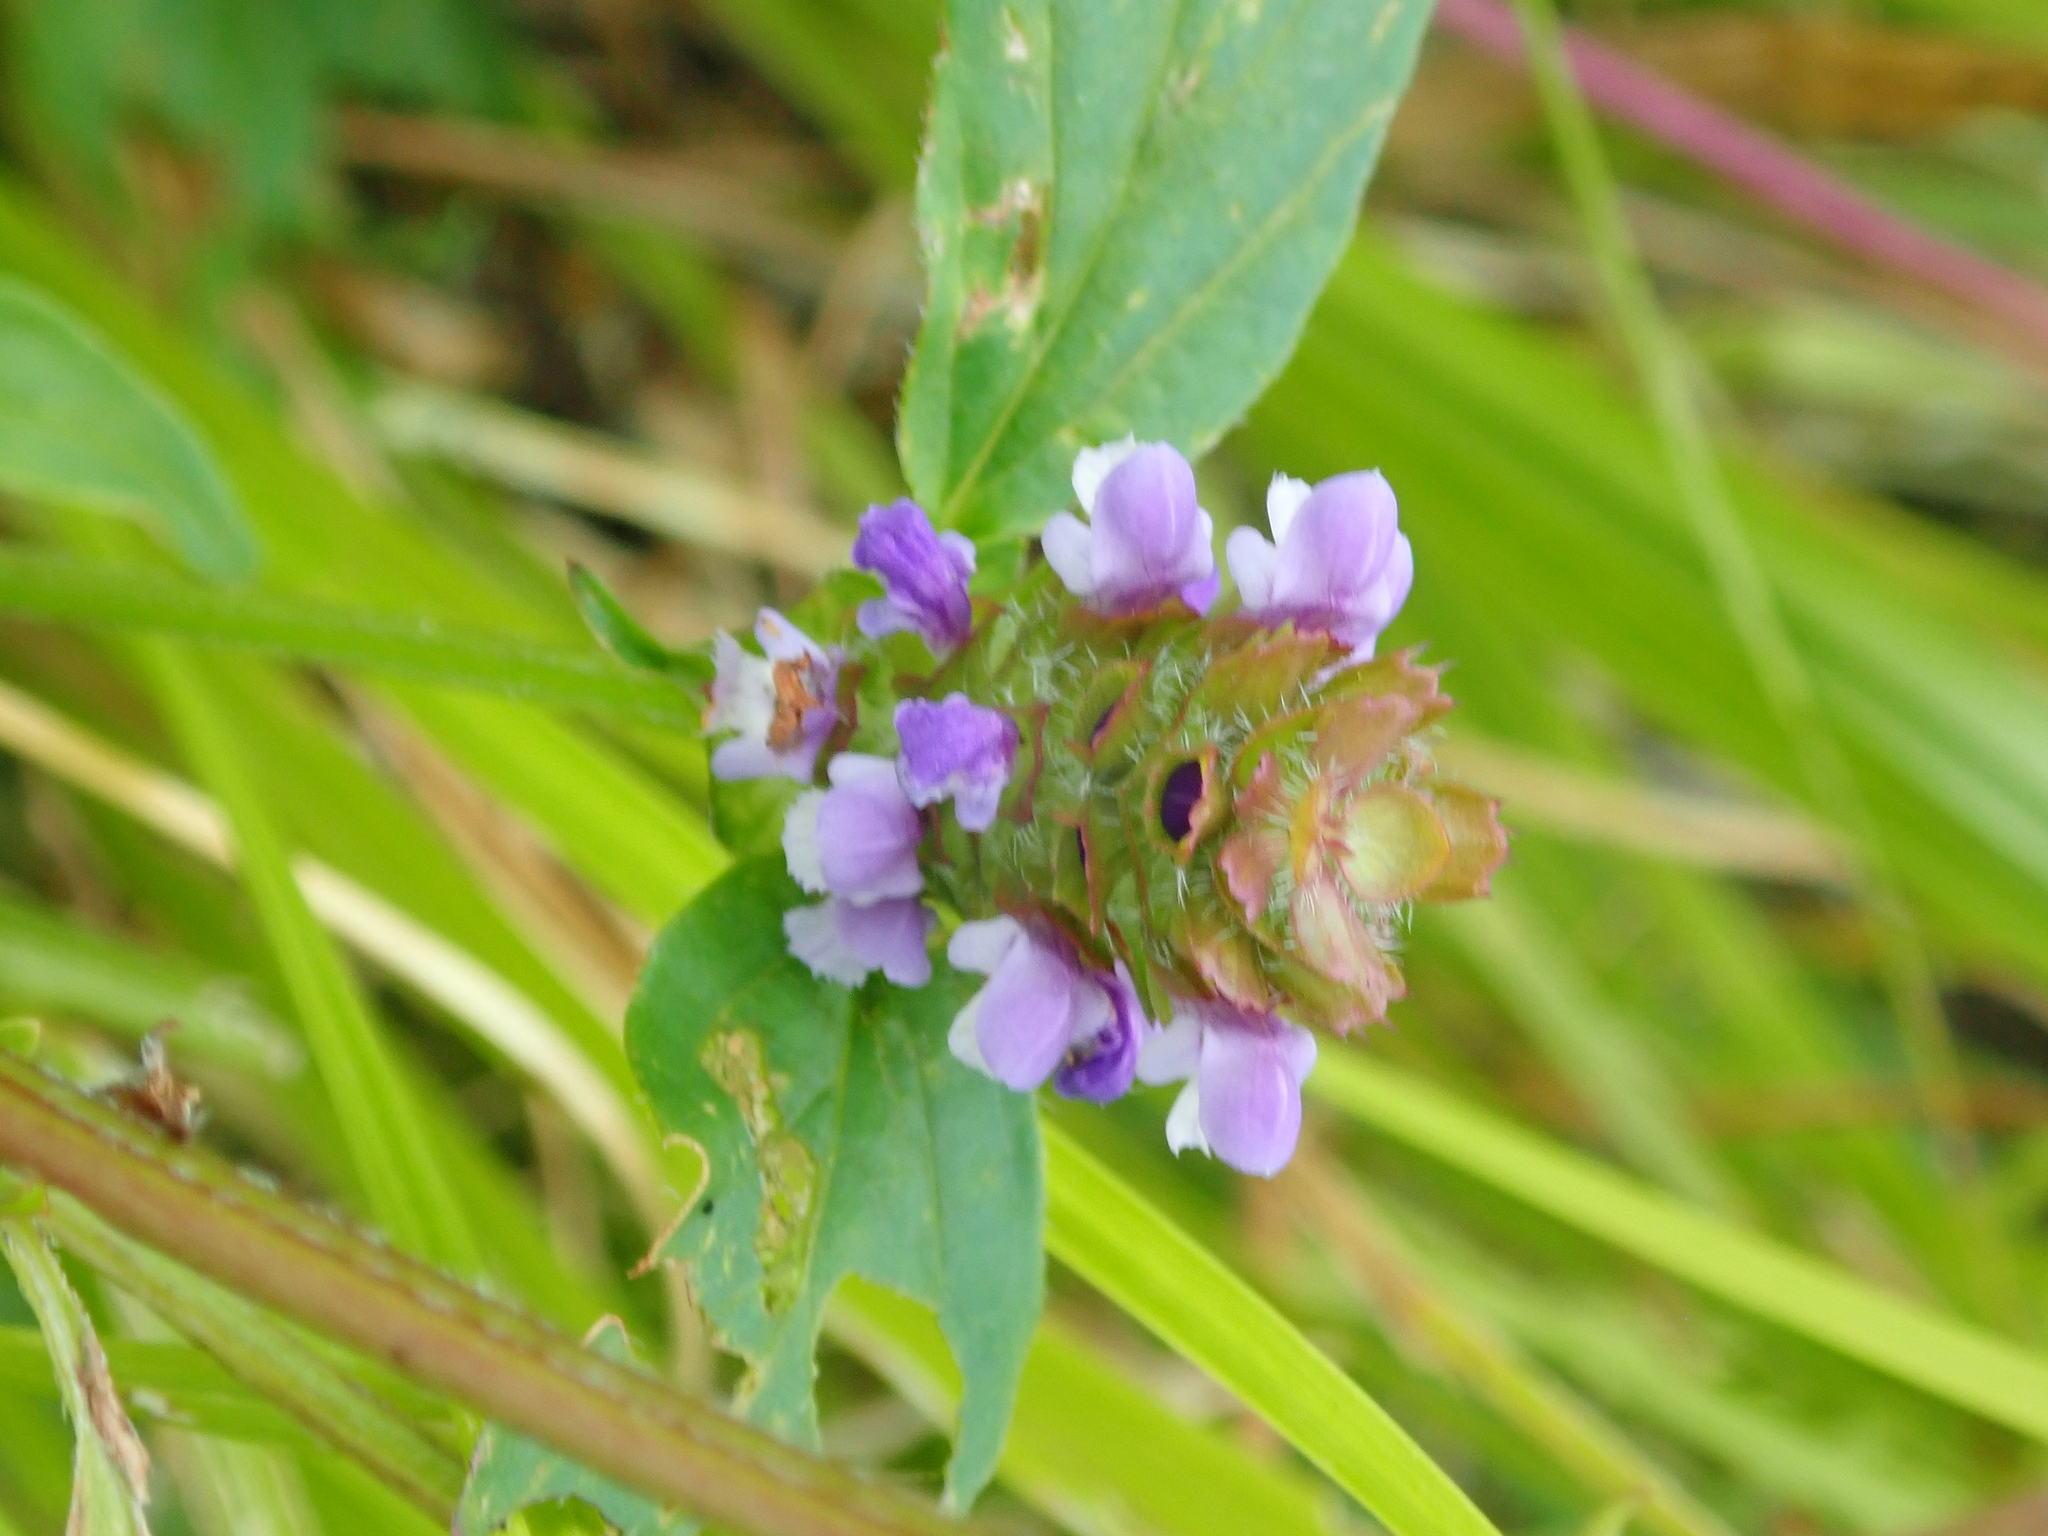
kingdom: Plantae
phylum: Tracheophyta
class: Magnoliopsida
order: Lamiales
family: Lamiaceae
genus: Prunella
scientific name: Prunella vulgaris
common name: Heal-all
